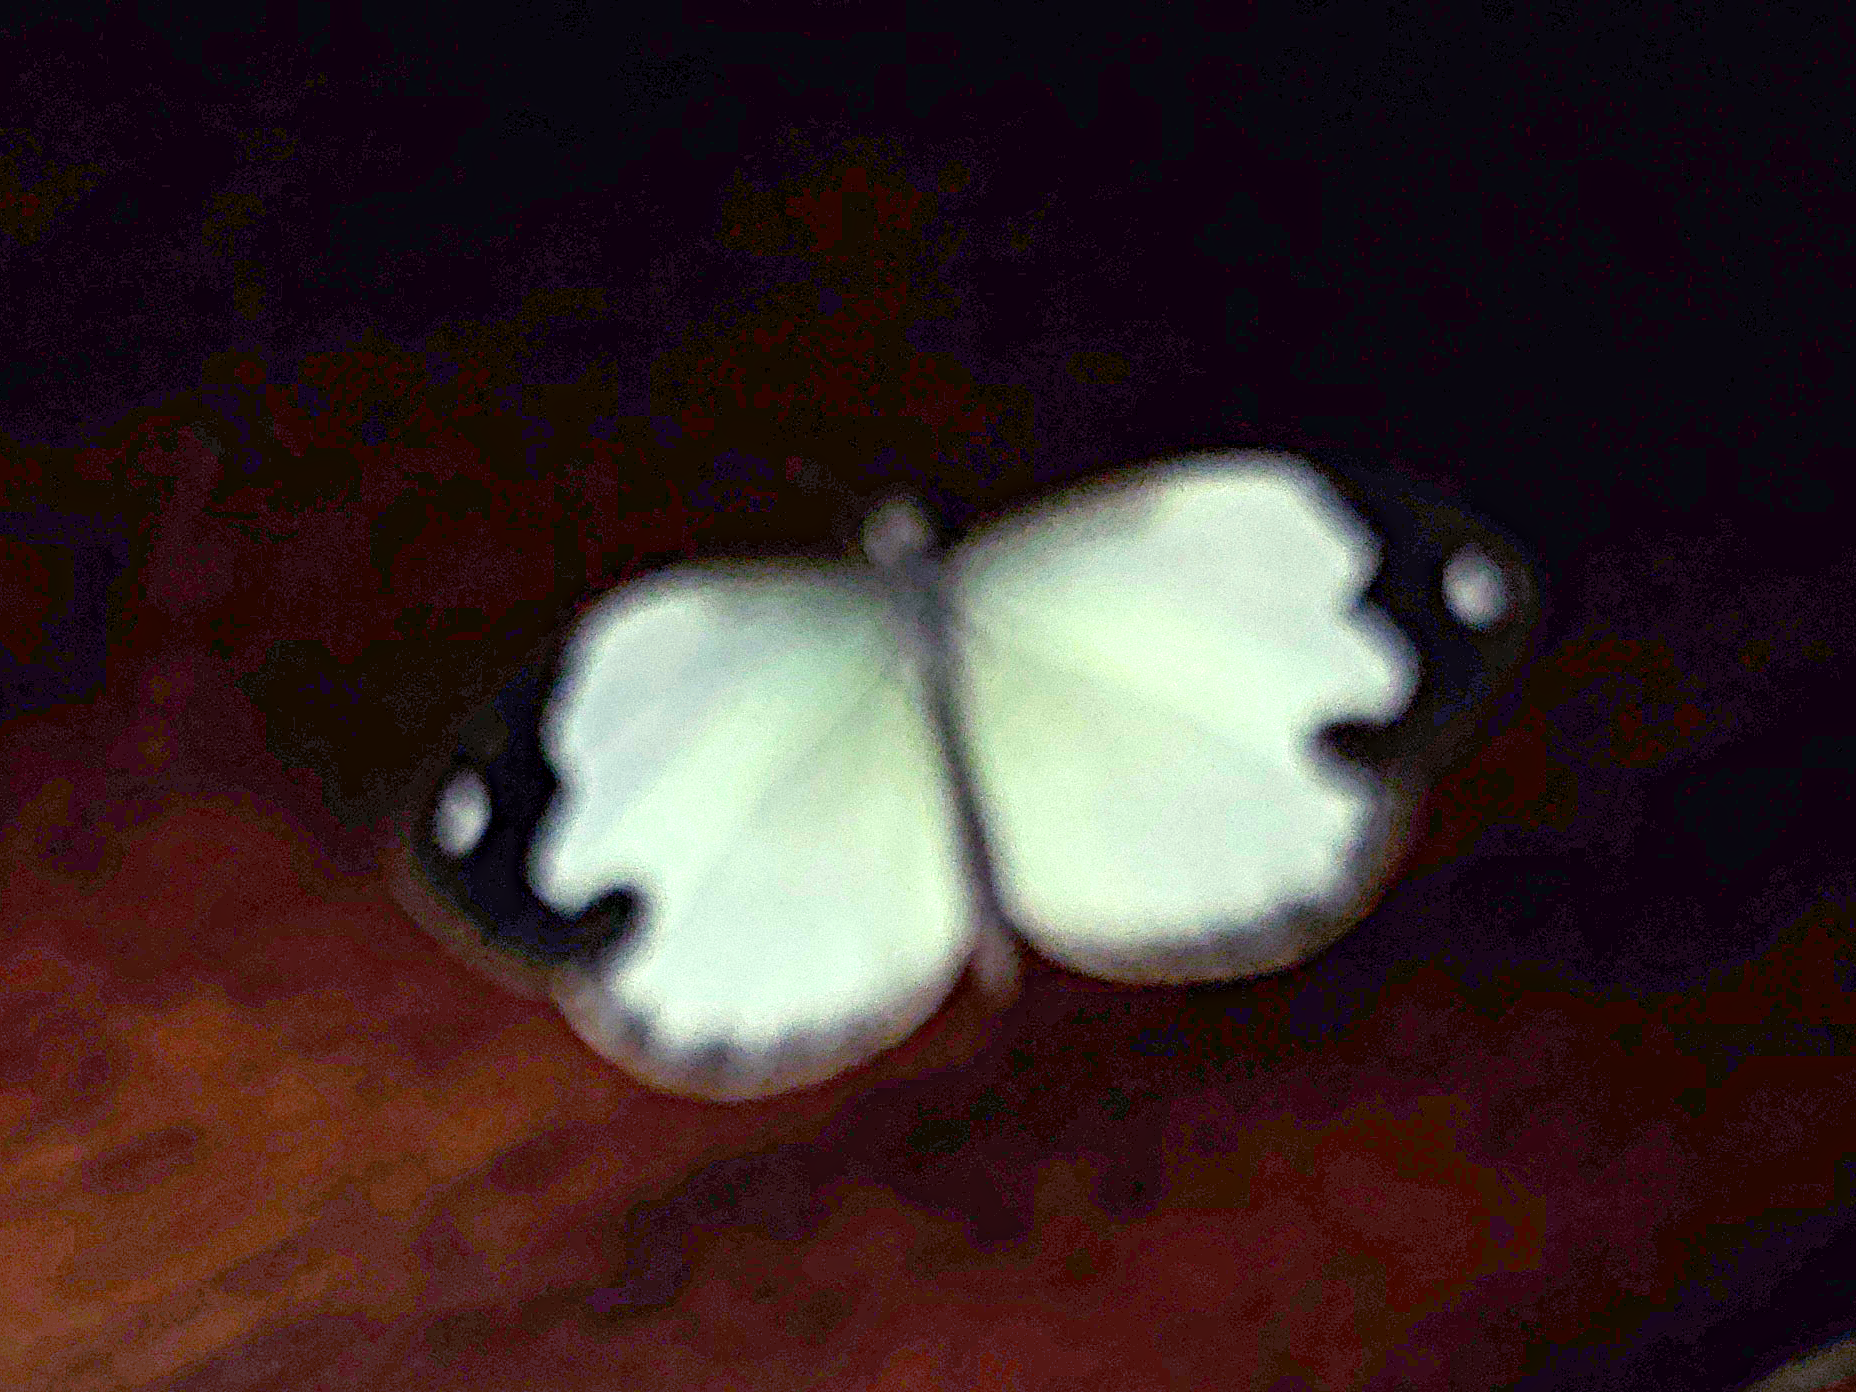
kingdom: Animalia
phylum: Arthropoda
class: Insecta
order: Lepidoptera
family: Pieridae
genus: Dismorphia
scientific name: Dismorphia thermesia
